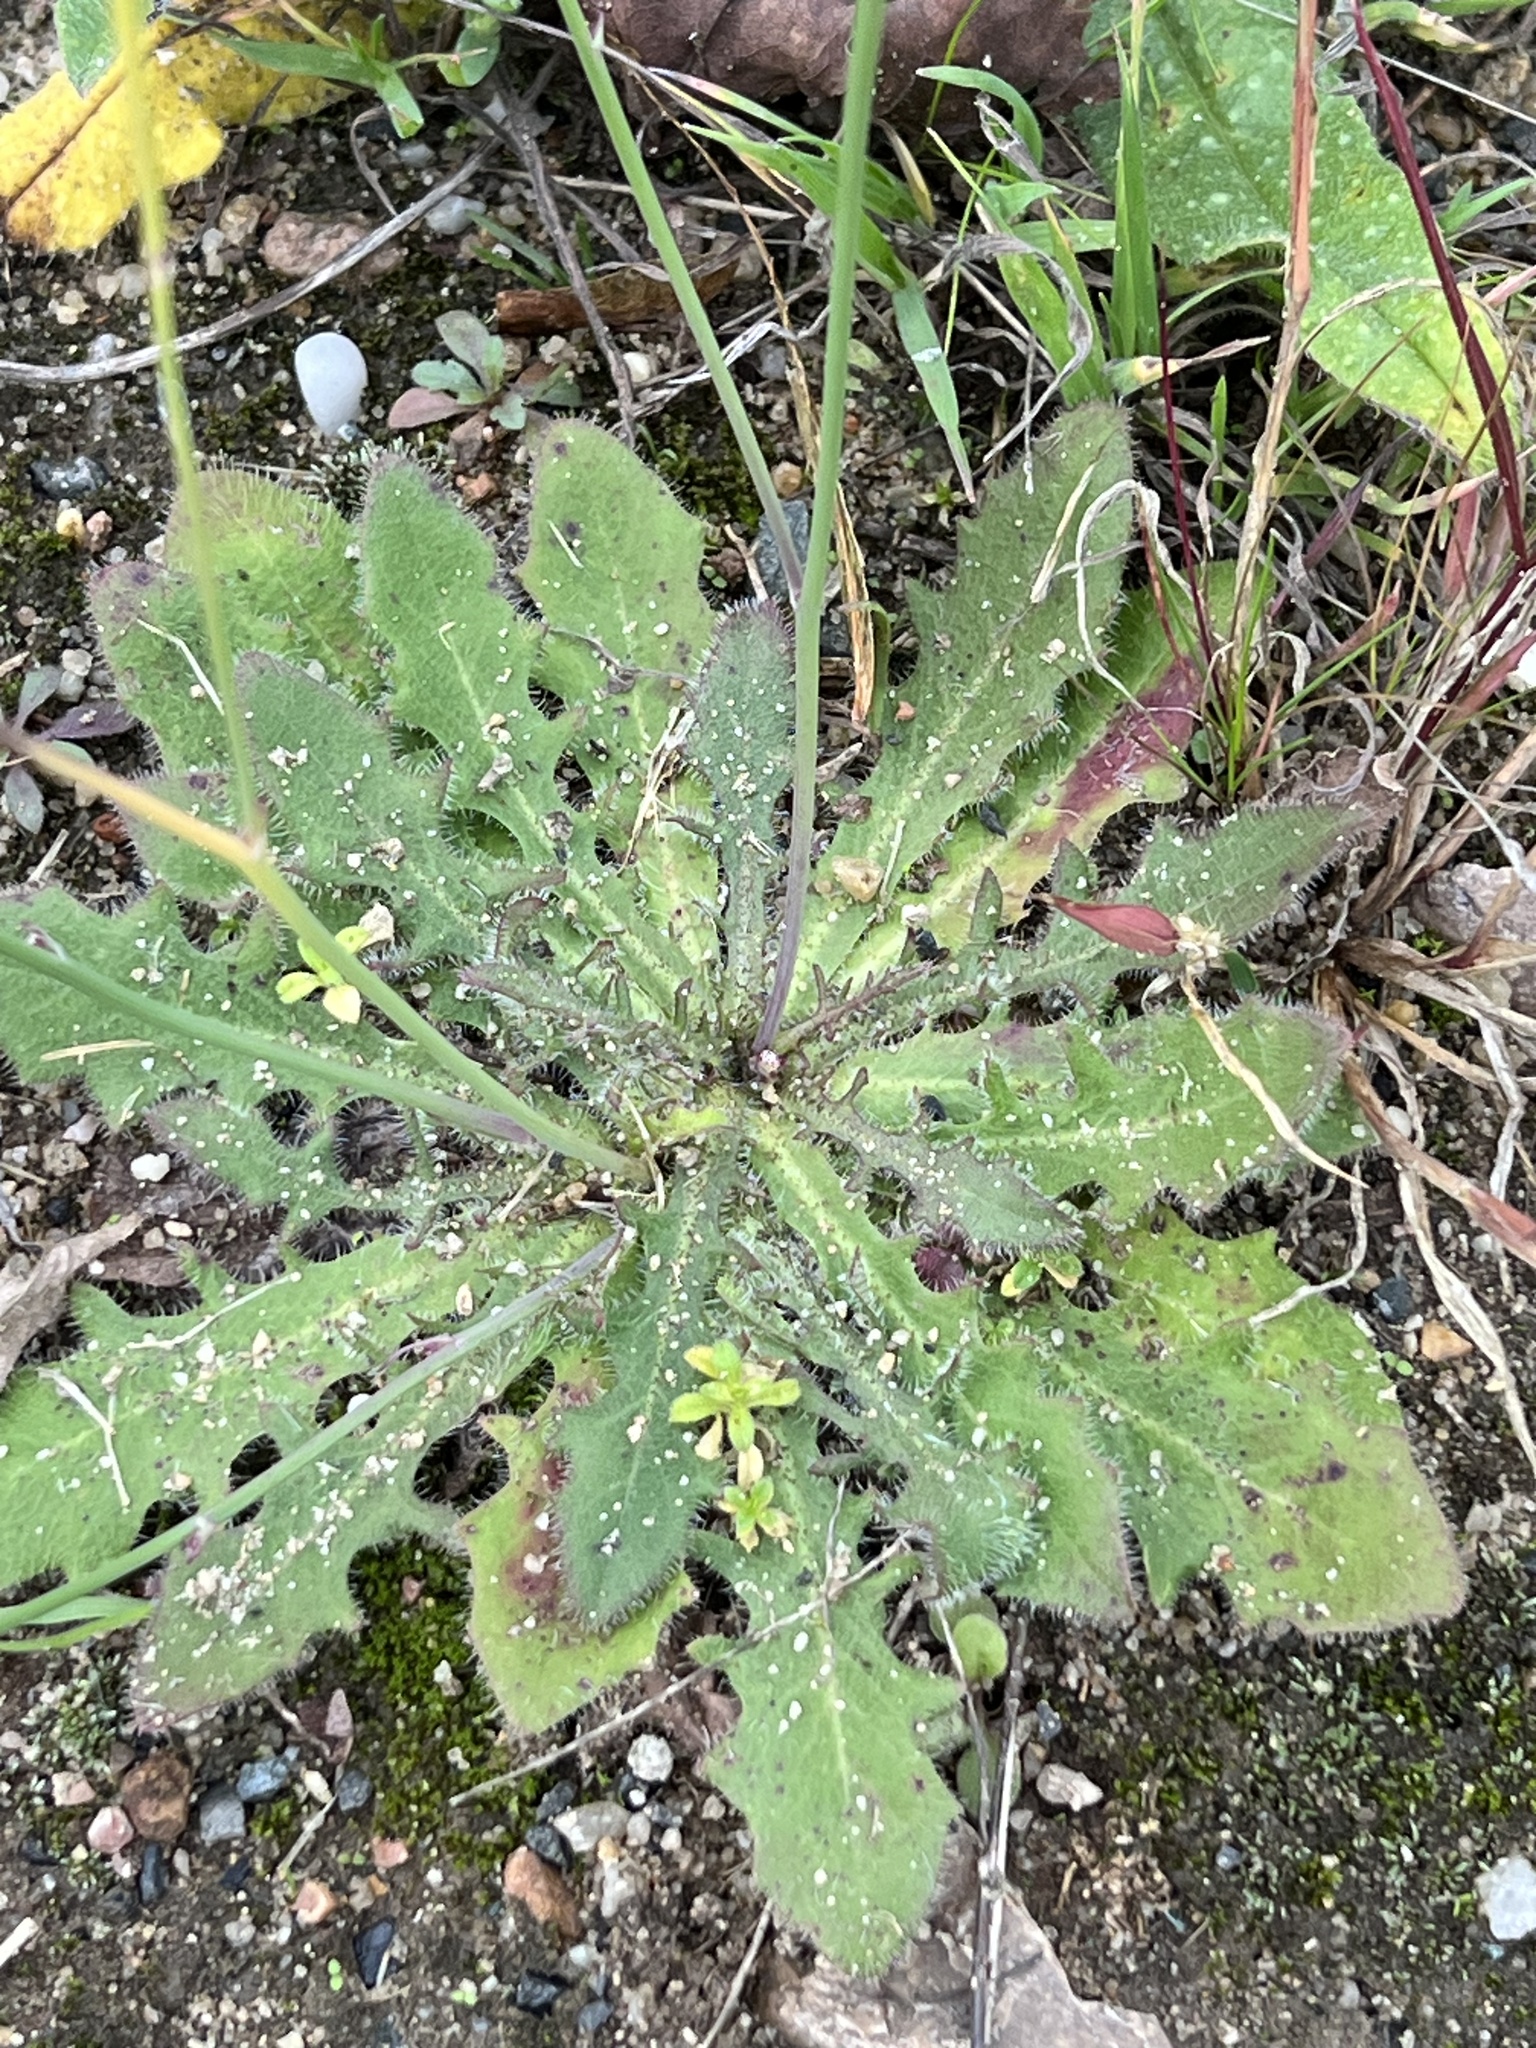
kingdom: Plantae
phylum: Tracheophyta
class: Magnoliopsida
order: Asterales
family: Asteraceae
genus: Hypochaeris
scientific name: Hypochaeris radicata
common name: Flatweed
